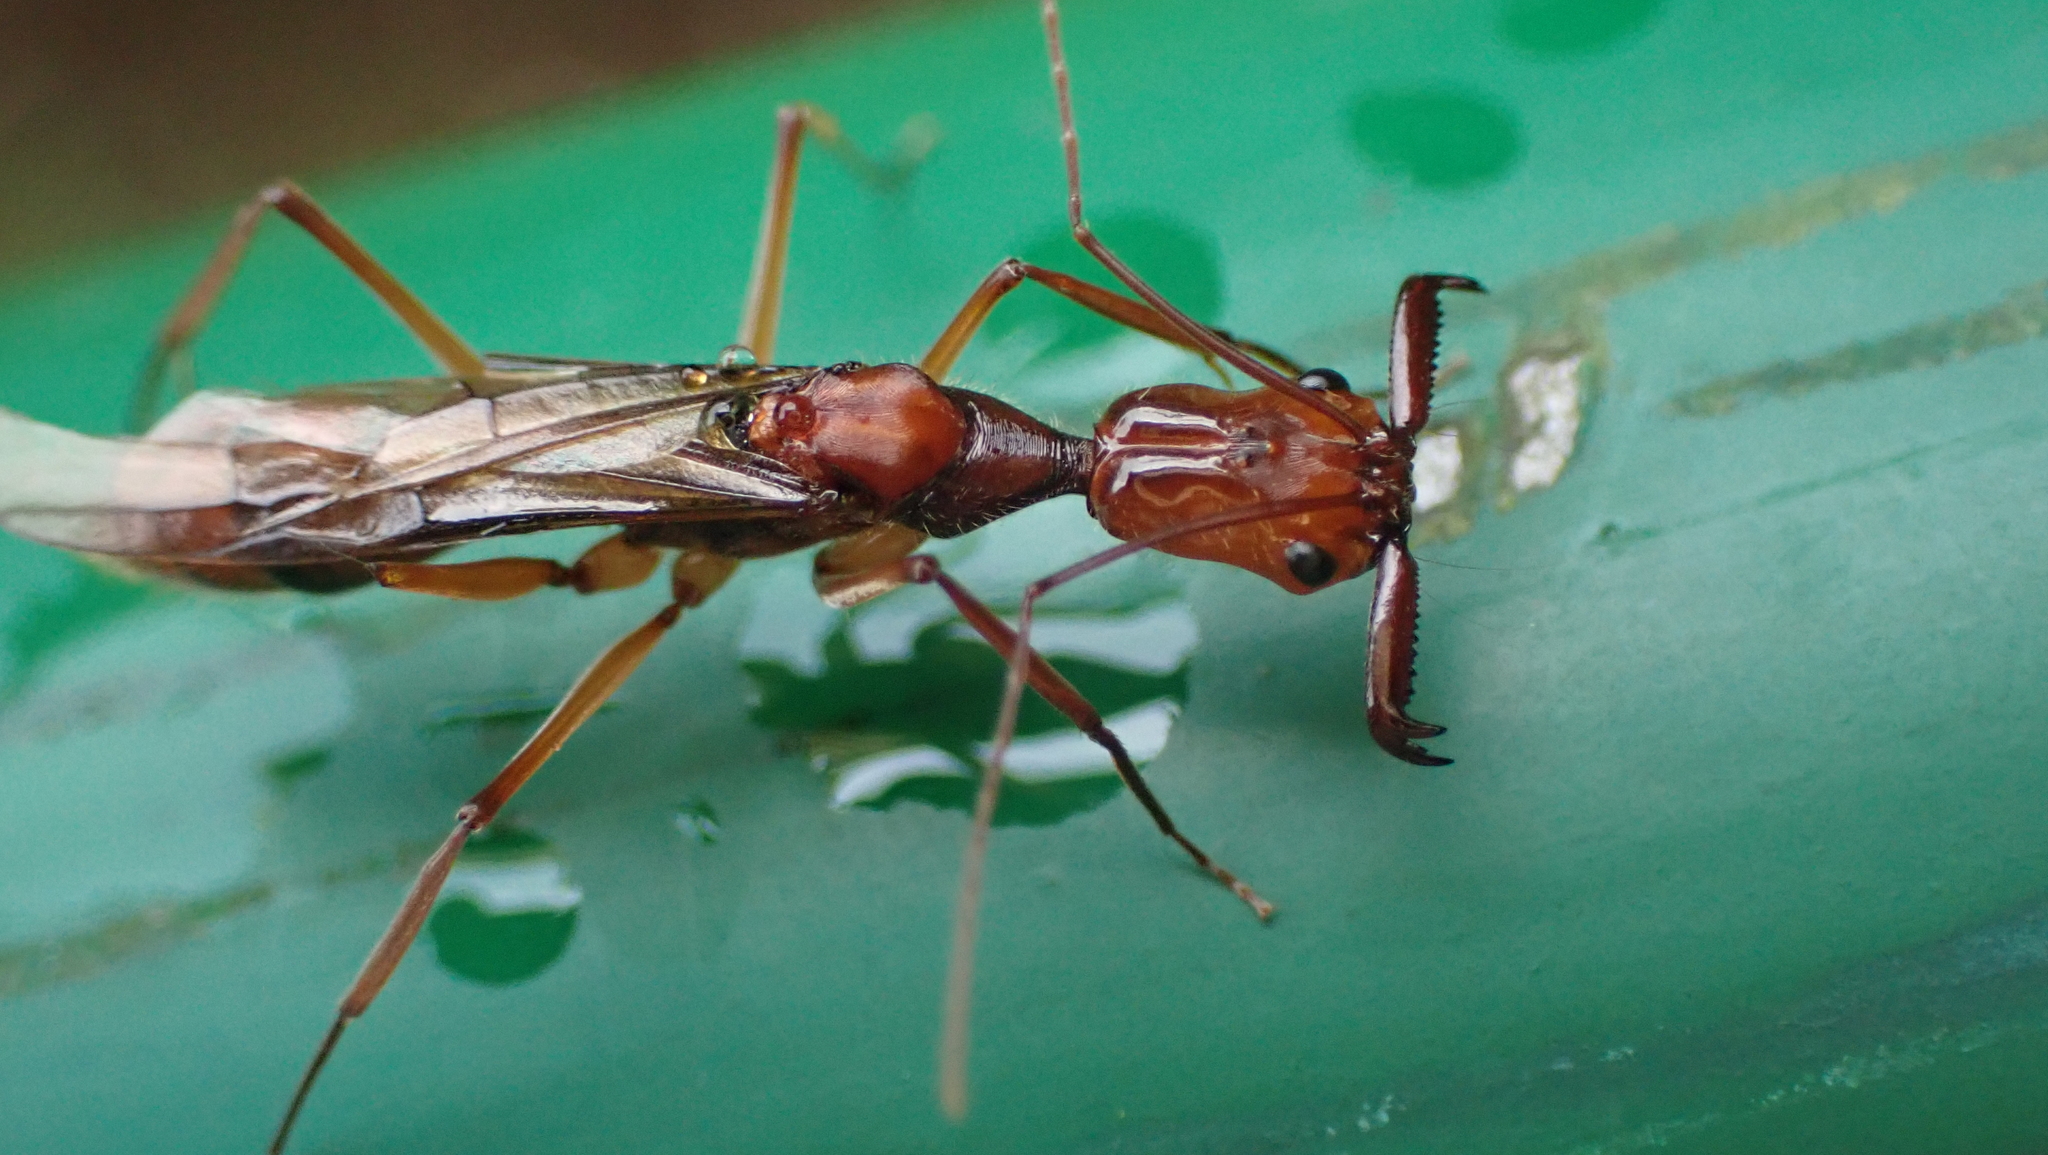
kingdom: Animalia
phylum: Arthropoda
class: Insecta
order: Hymenoptera
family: Formicidae
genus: Odontomachus
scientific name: Odontomachus hastatus
